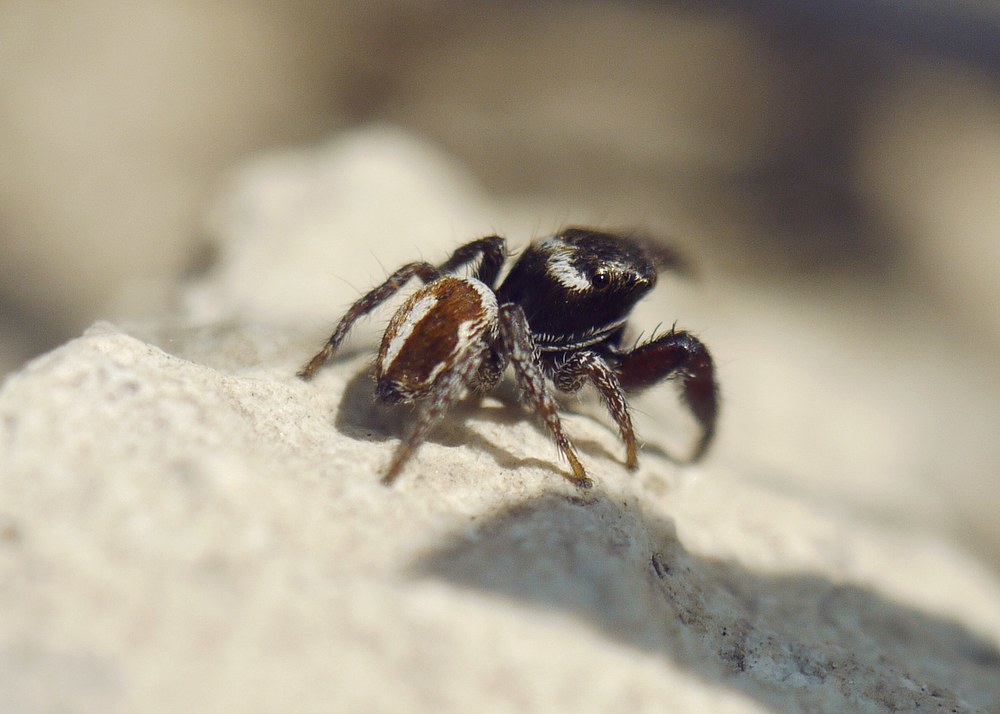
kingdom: Animalia
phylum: Arthropoda
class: Arachnida
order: Araneae
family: Salticidae
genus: Pellenes
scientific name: Pellenes nigrociliatus
